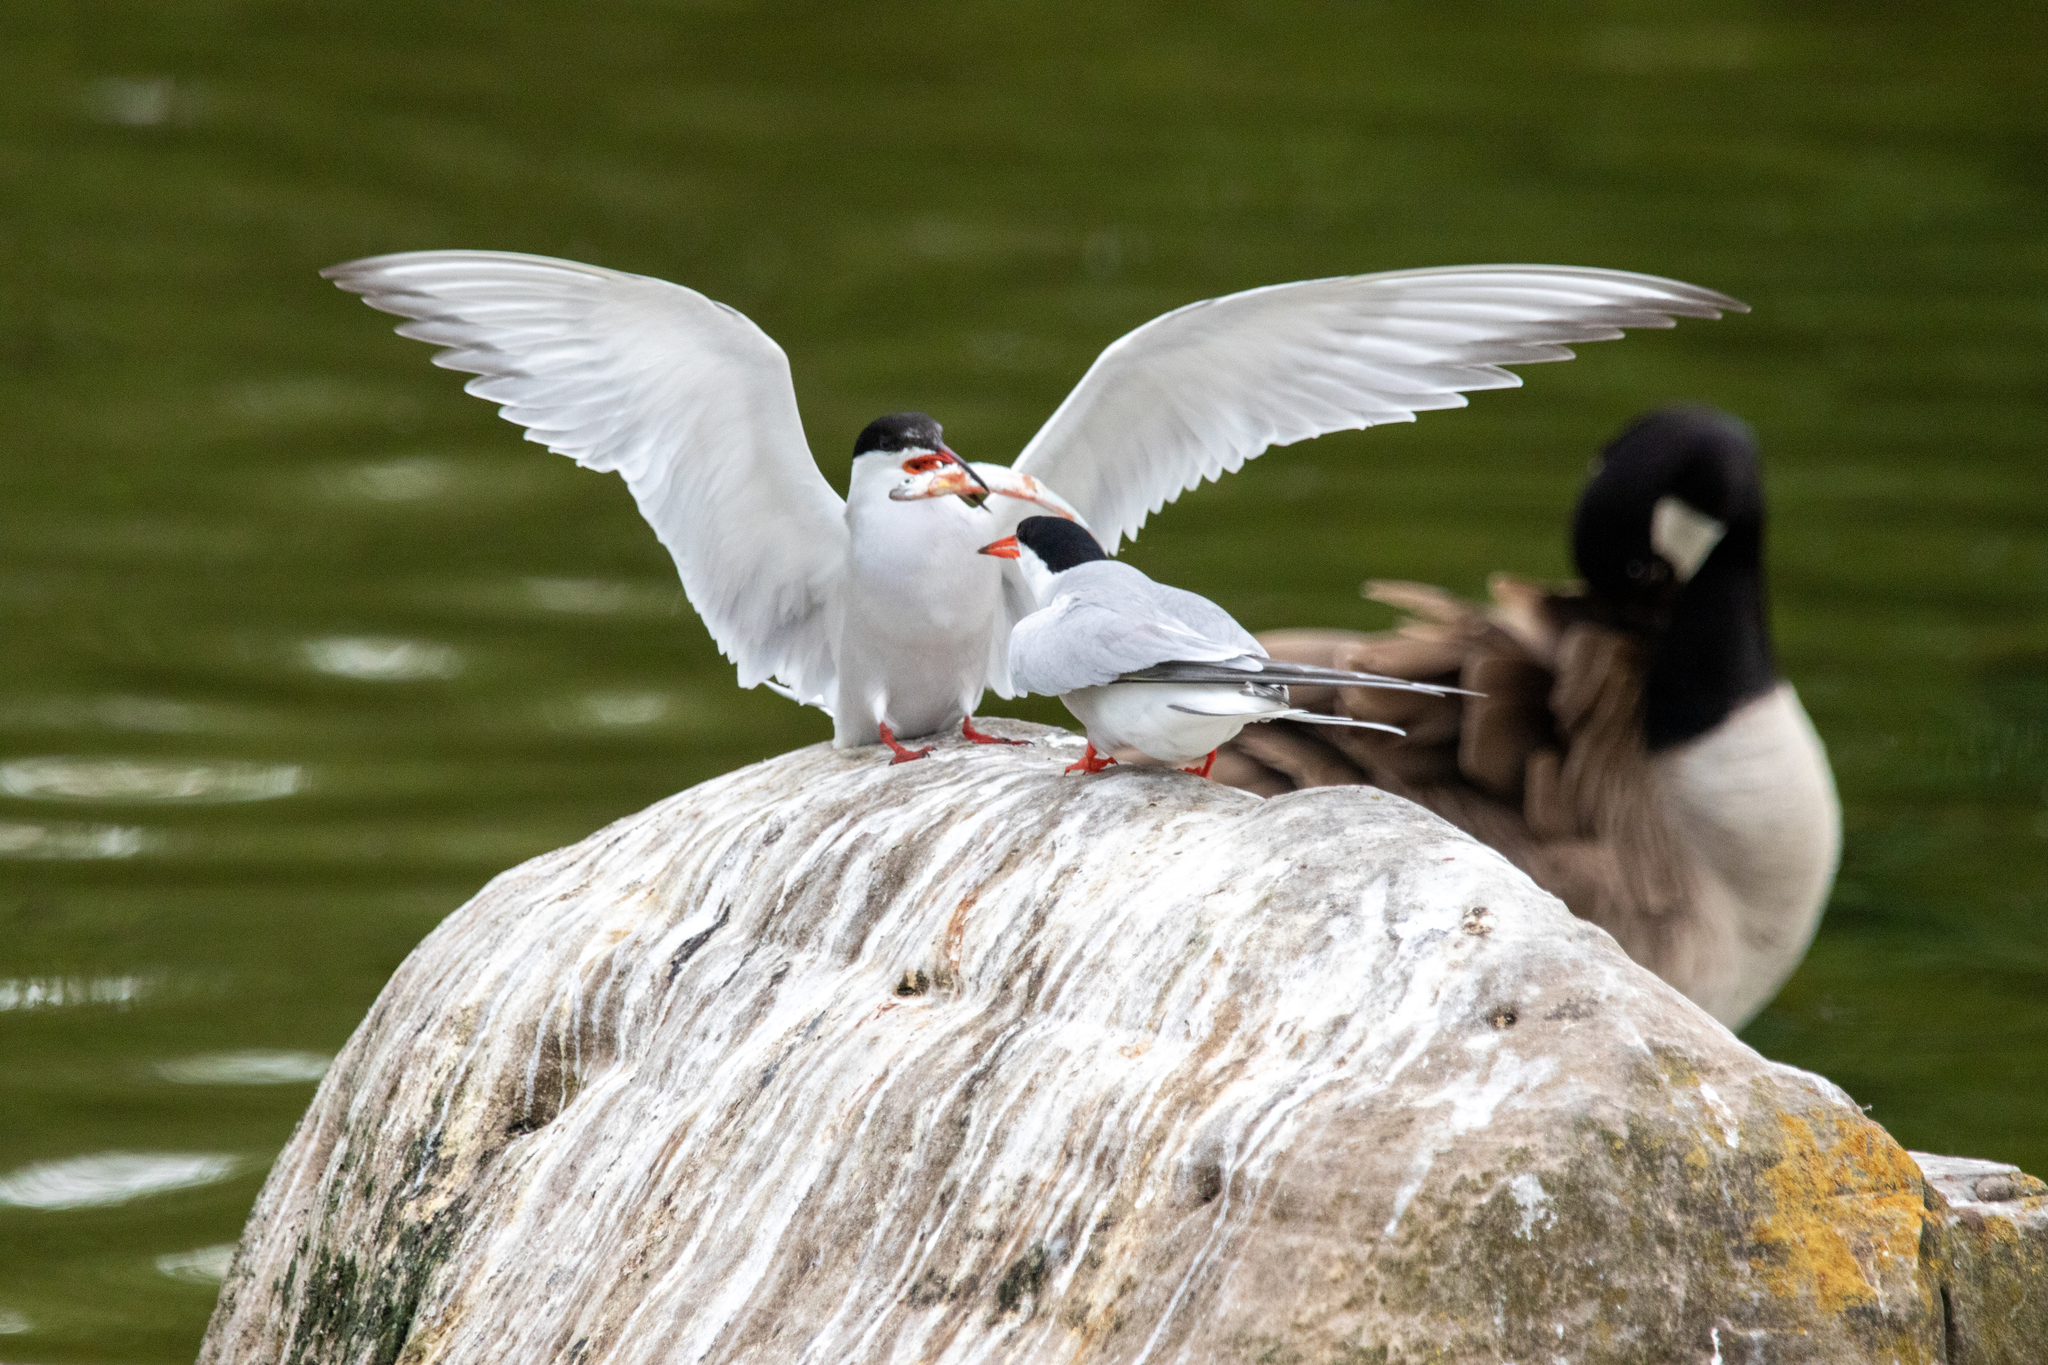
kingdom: Animalia
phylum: Chordata
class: Aves
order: Charadriiformes
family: Laridae
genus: Sterna
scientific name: Sterna hirundo
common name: Common tern
